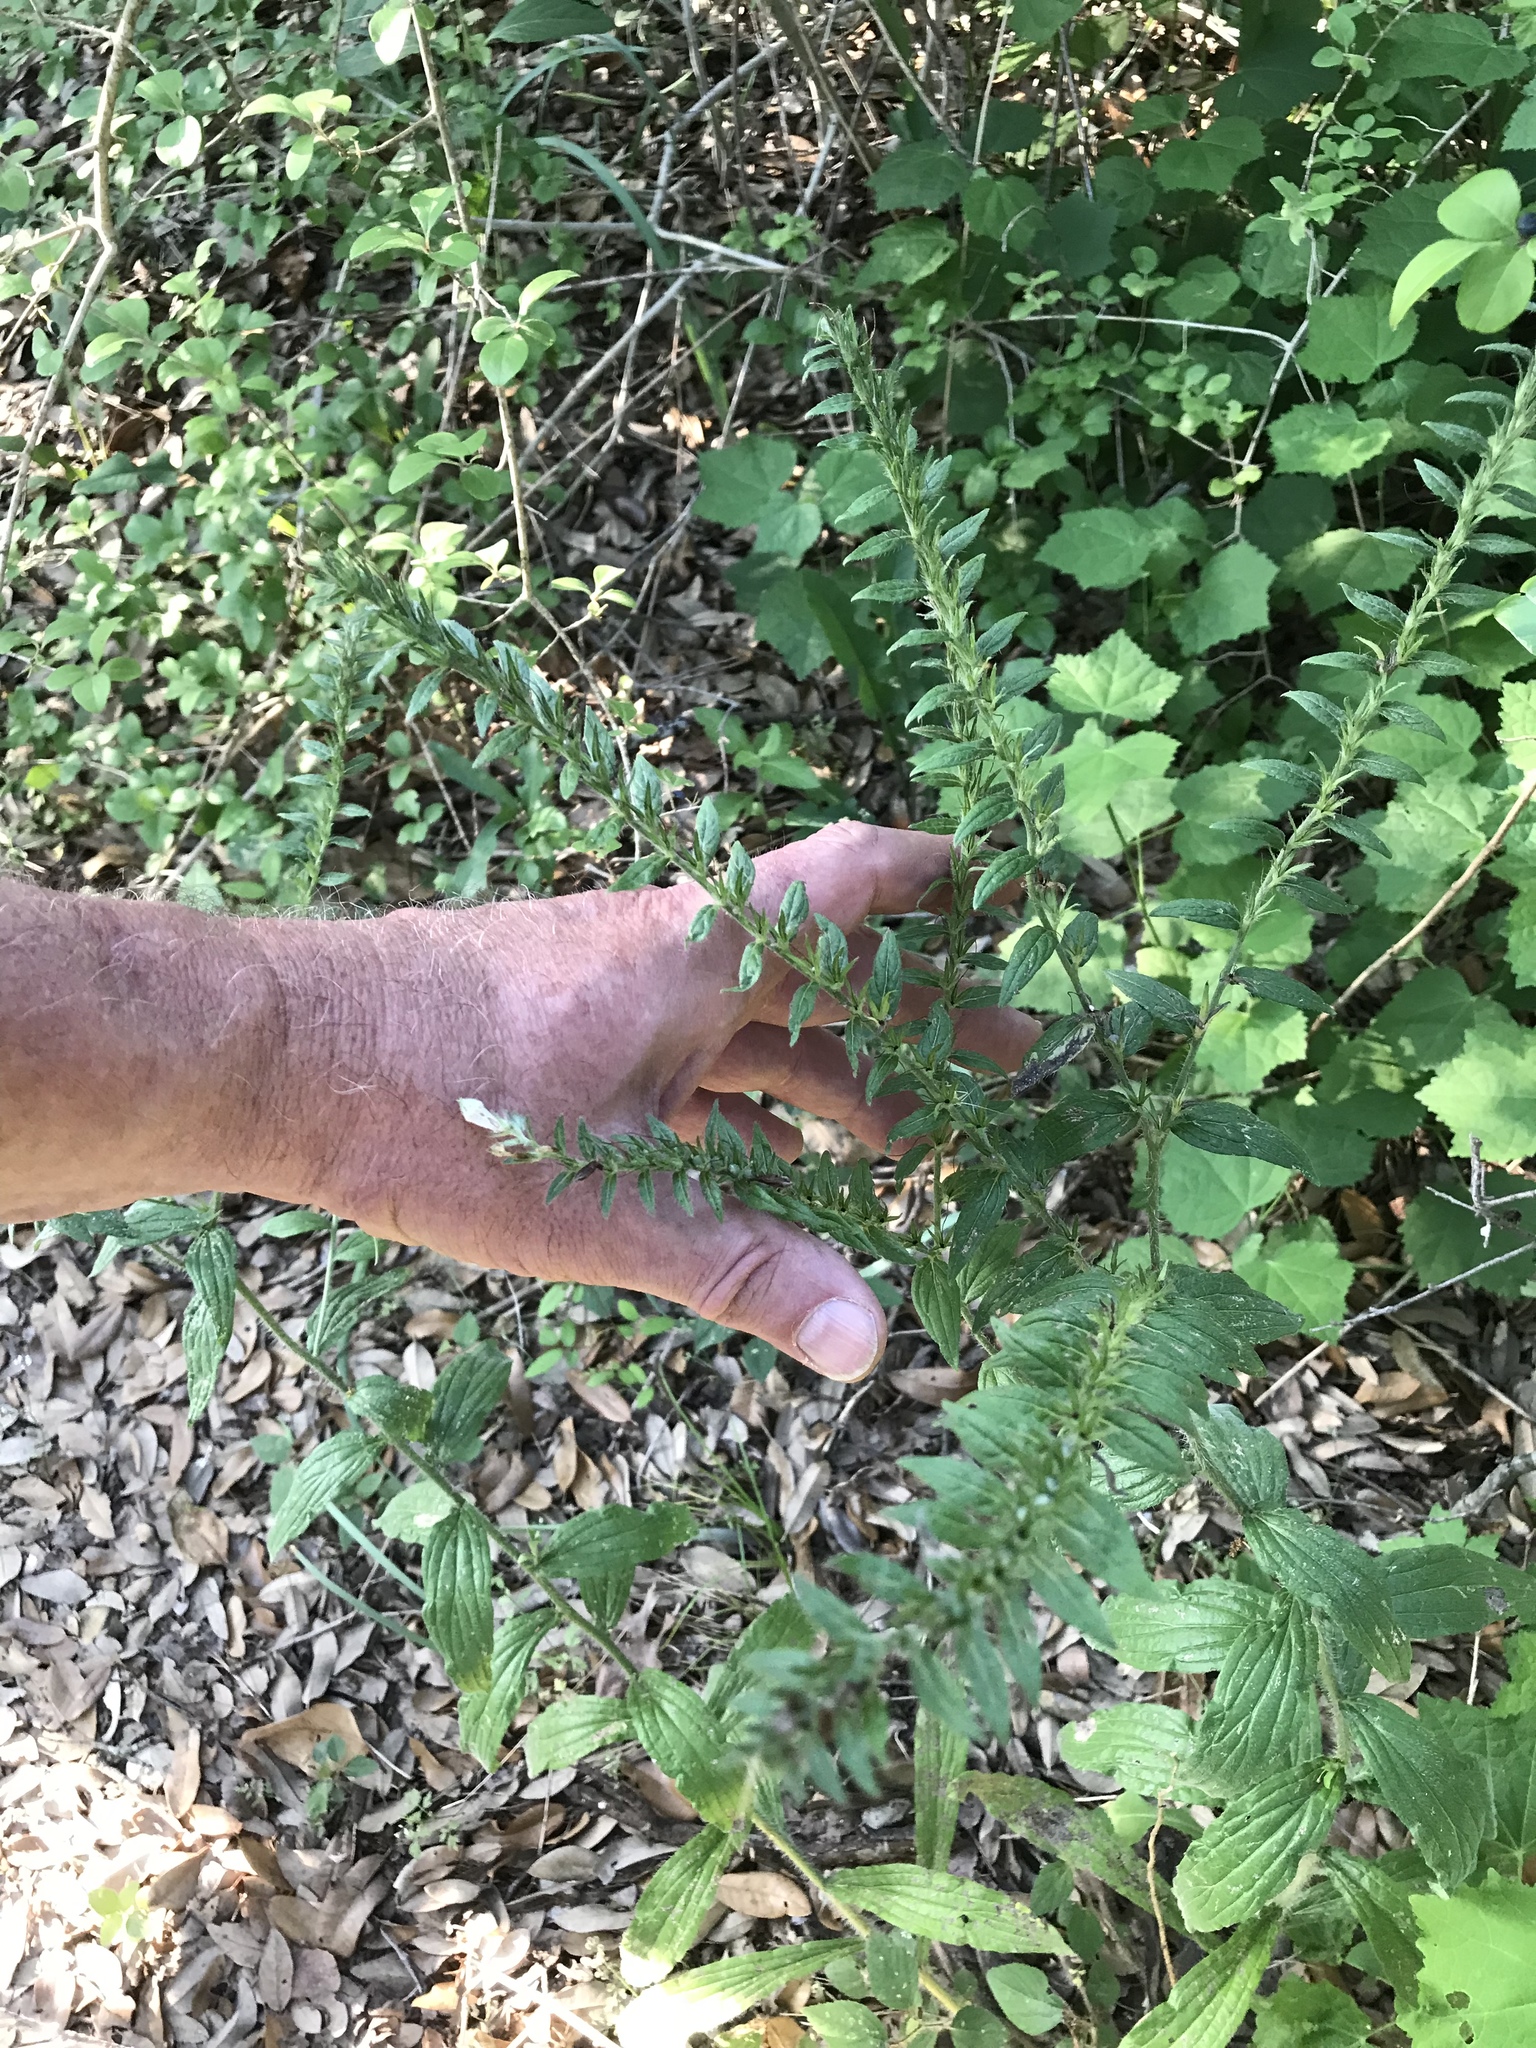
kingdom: Plantae
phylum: Tracheophyta
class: Magnoliopsida
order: Boraginales
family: Boraginaceae
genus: Lithospermum
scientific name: Lithospermum caroliniense
